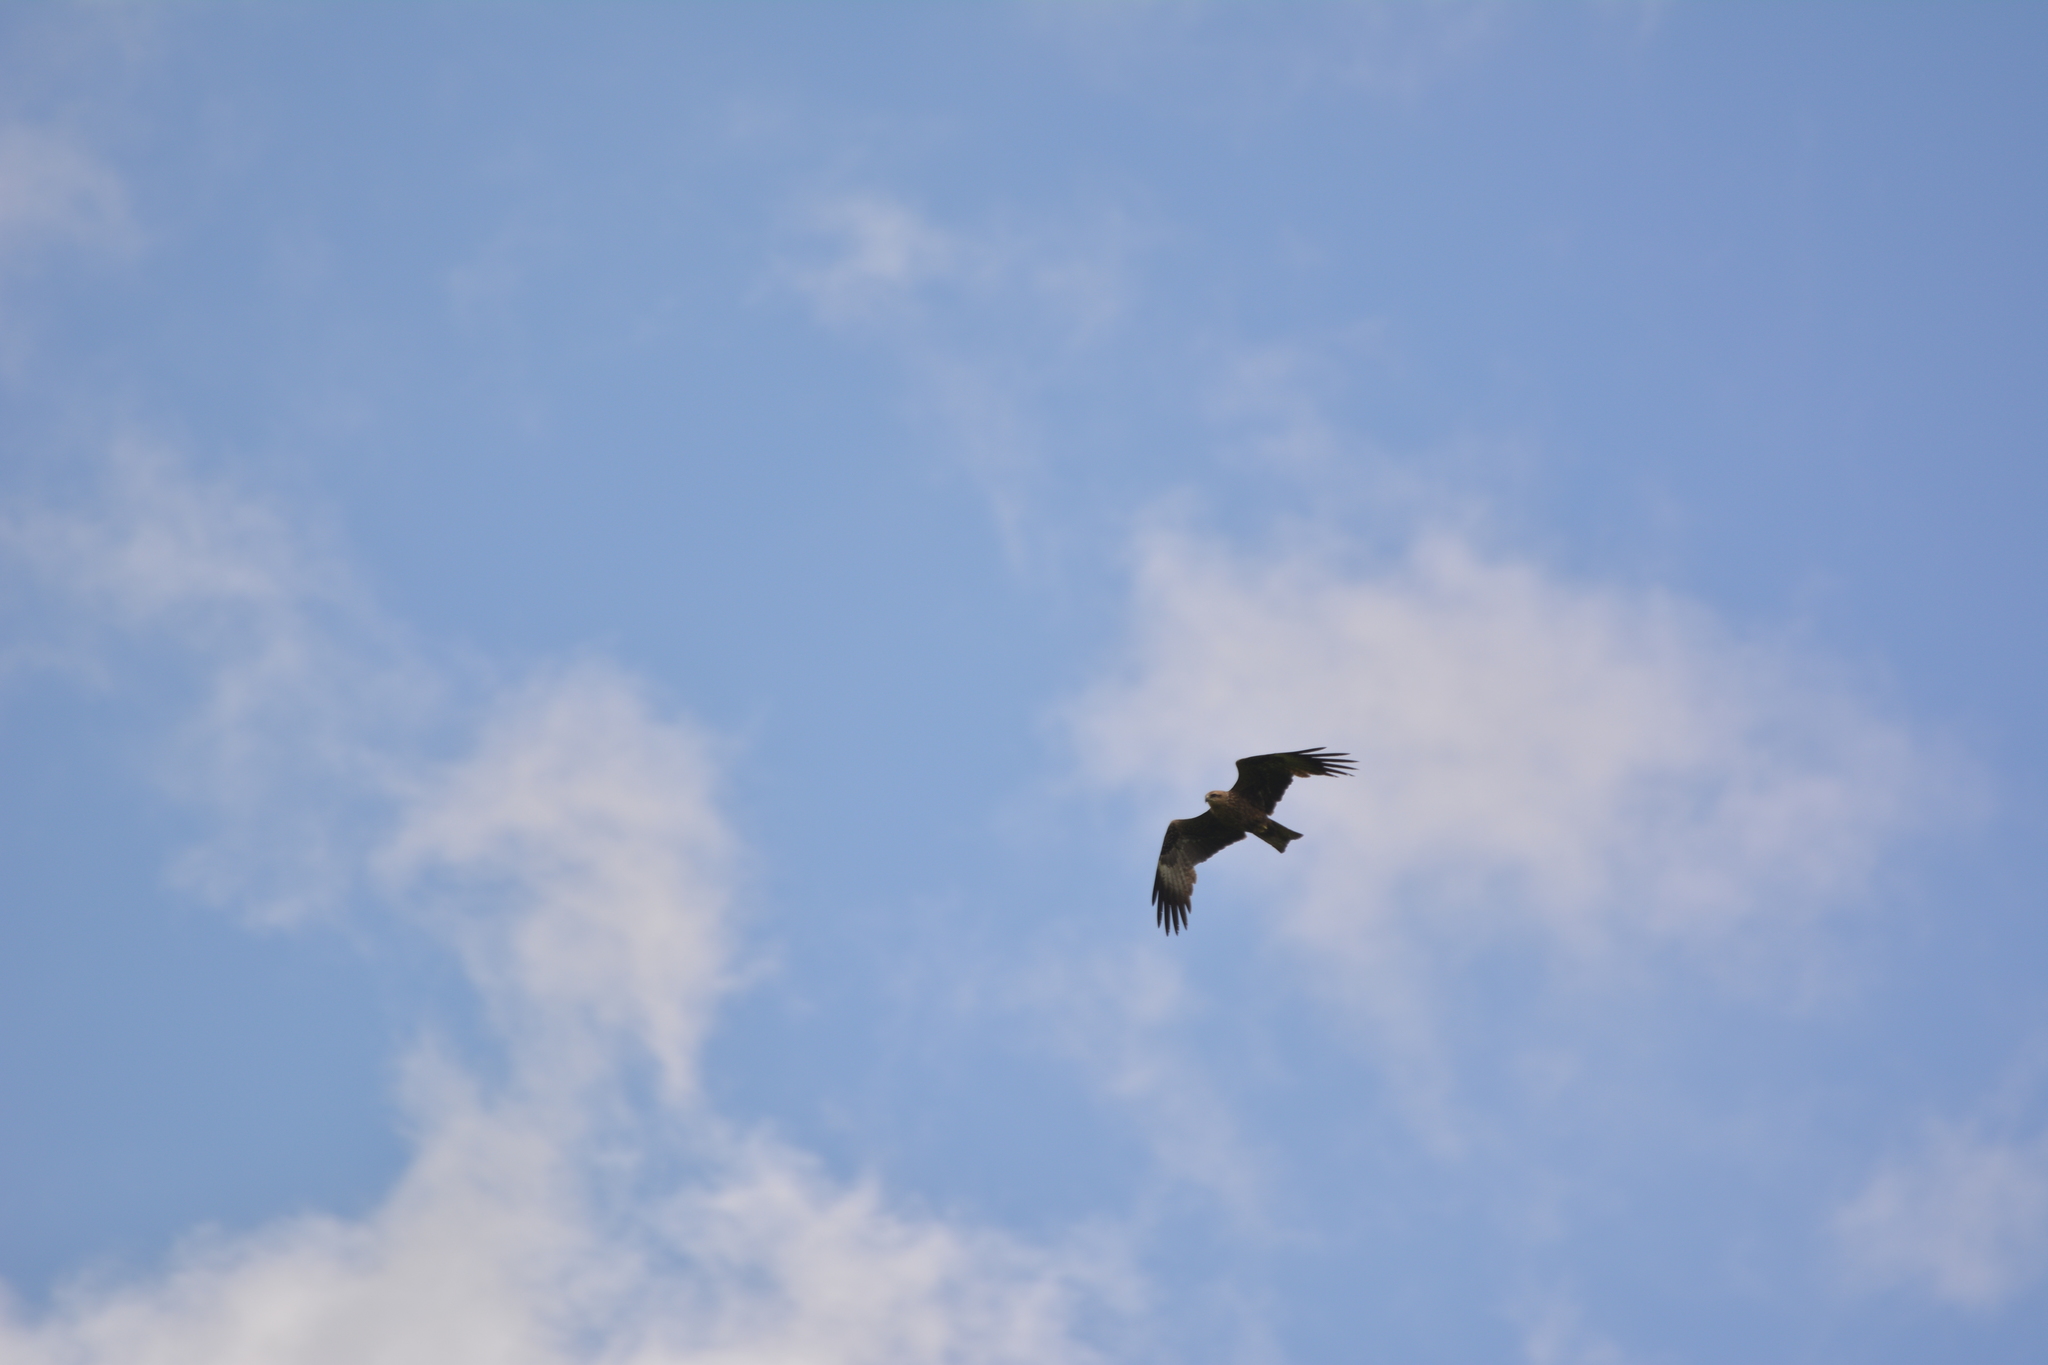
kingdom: Animalia
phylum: Chordata
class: Aves
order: Accipitriformes
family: Accipitridae
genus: Milvus
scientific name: Milvus migrans
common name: Black kite
